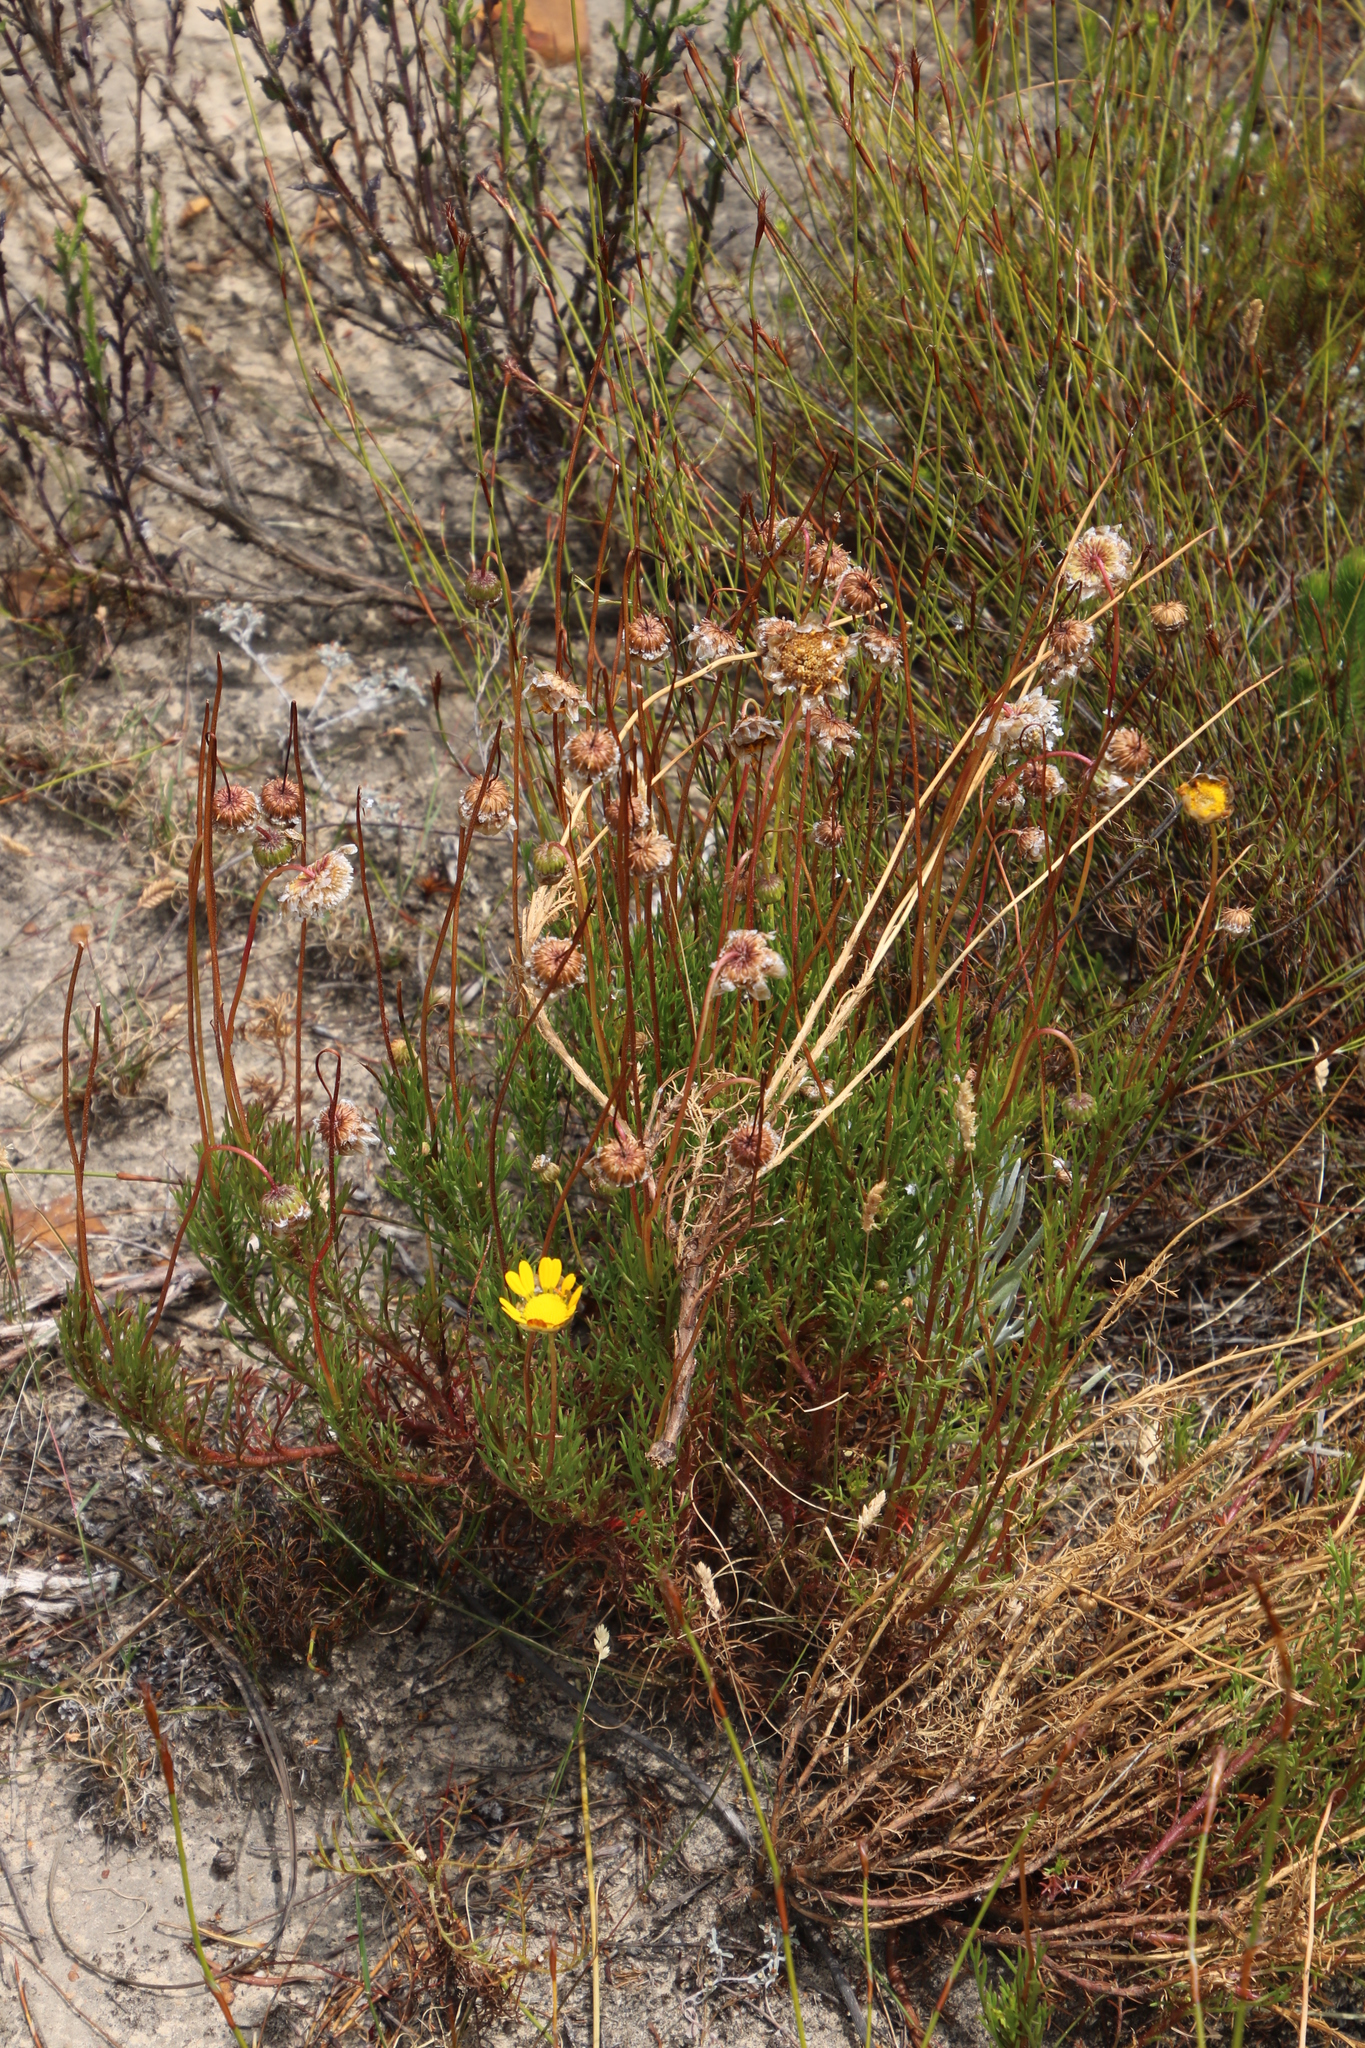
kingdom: Plantae
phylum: Tracheophyta
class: Magnoliopsida
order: Asterales
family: Asteraceae
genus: Ursinia
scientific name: Ursinia paleacea
